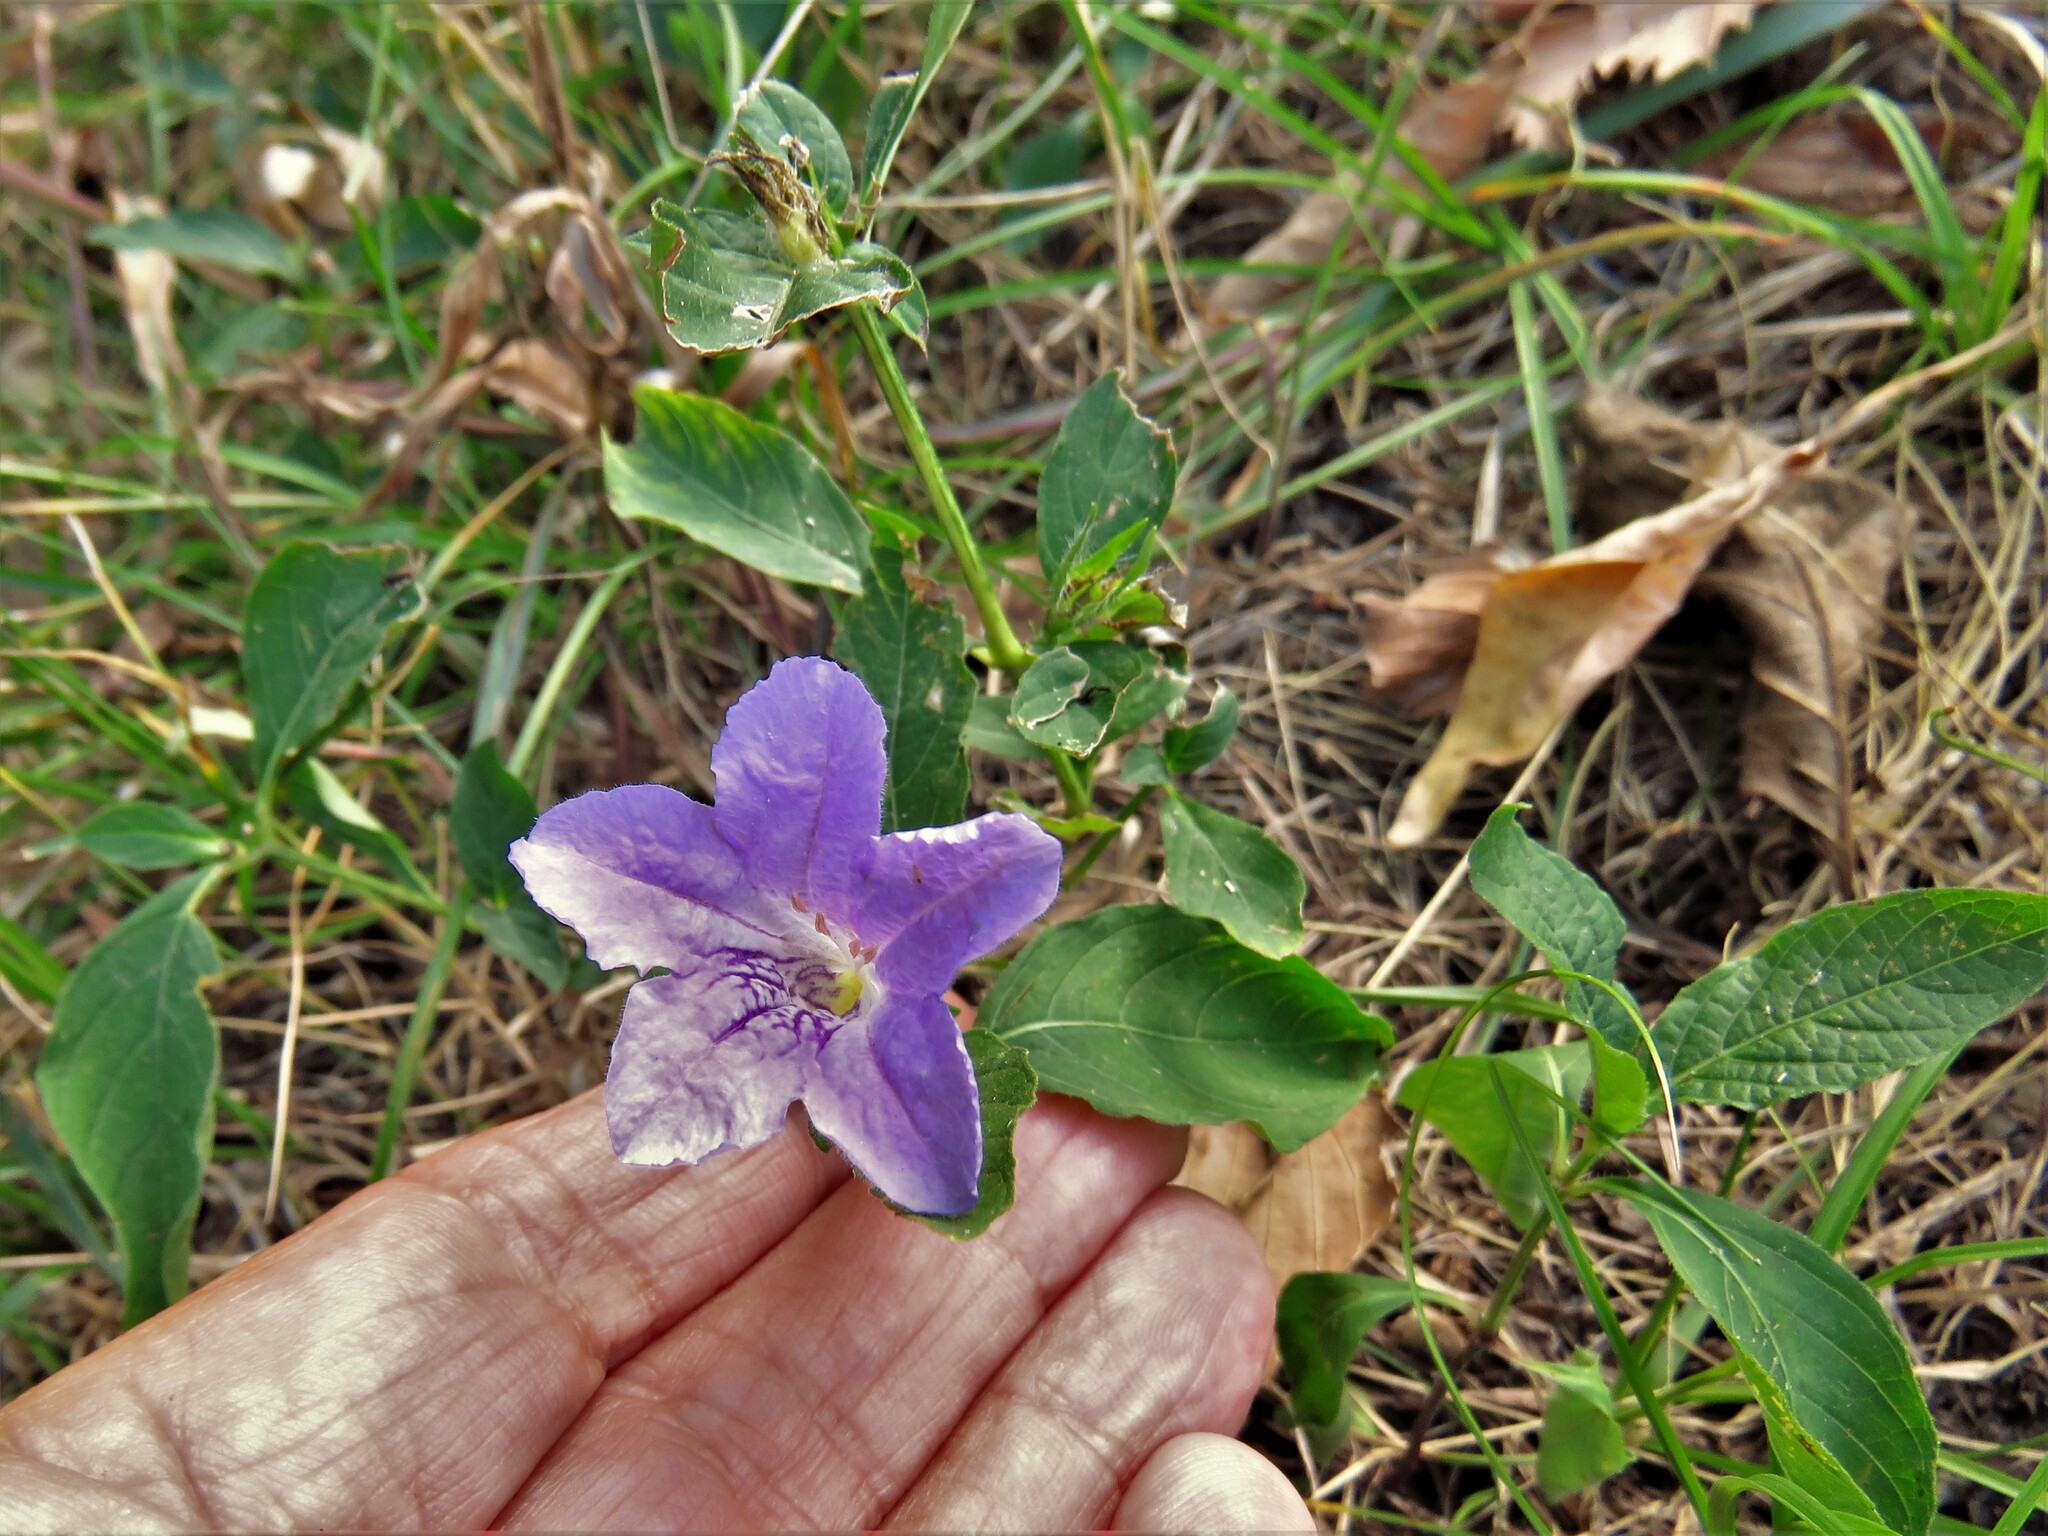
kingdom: Plantae
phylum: Tracheophyta
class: Magnoliopsida
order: Lamiales
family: Acanthaceae
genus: Ruellia
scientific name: Ruellia strepens
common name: Limestone wild petunia
